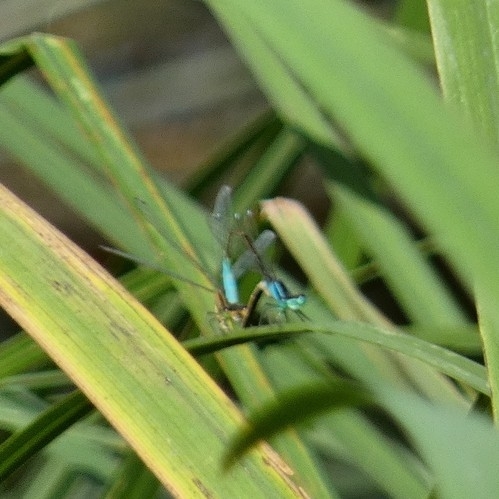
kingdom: Animalia
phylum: Arthropoda
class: Insecta
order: Odonata
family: Coenagrionidae
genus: Ischnura
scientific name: Ischnura elegans
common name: Blue-tailed damselfly
